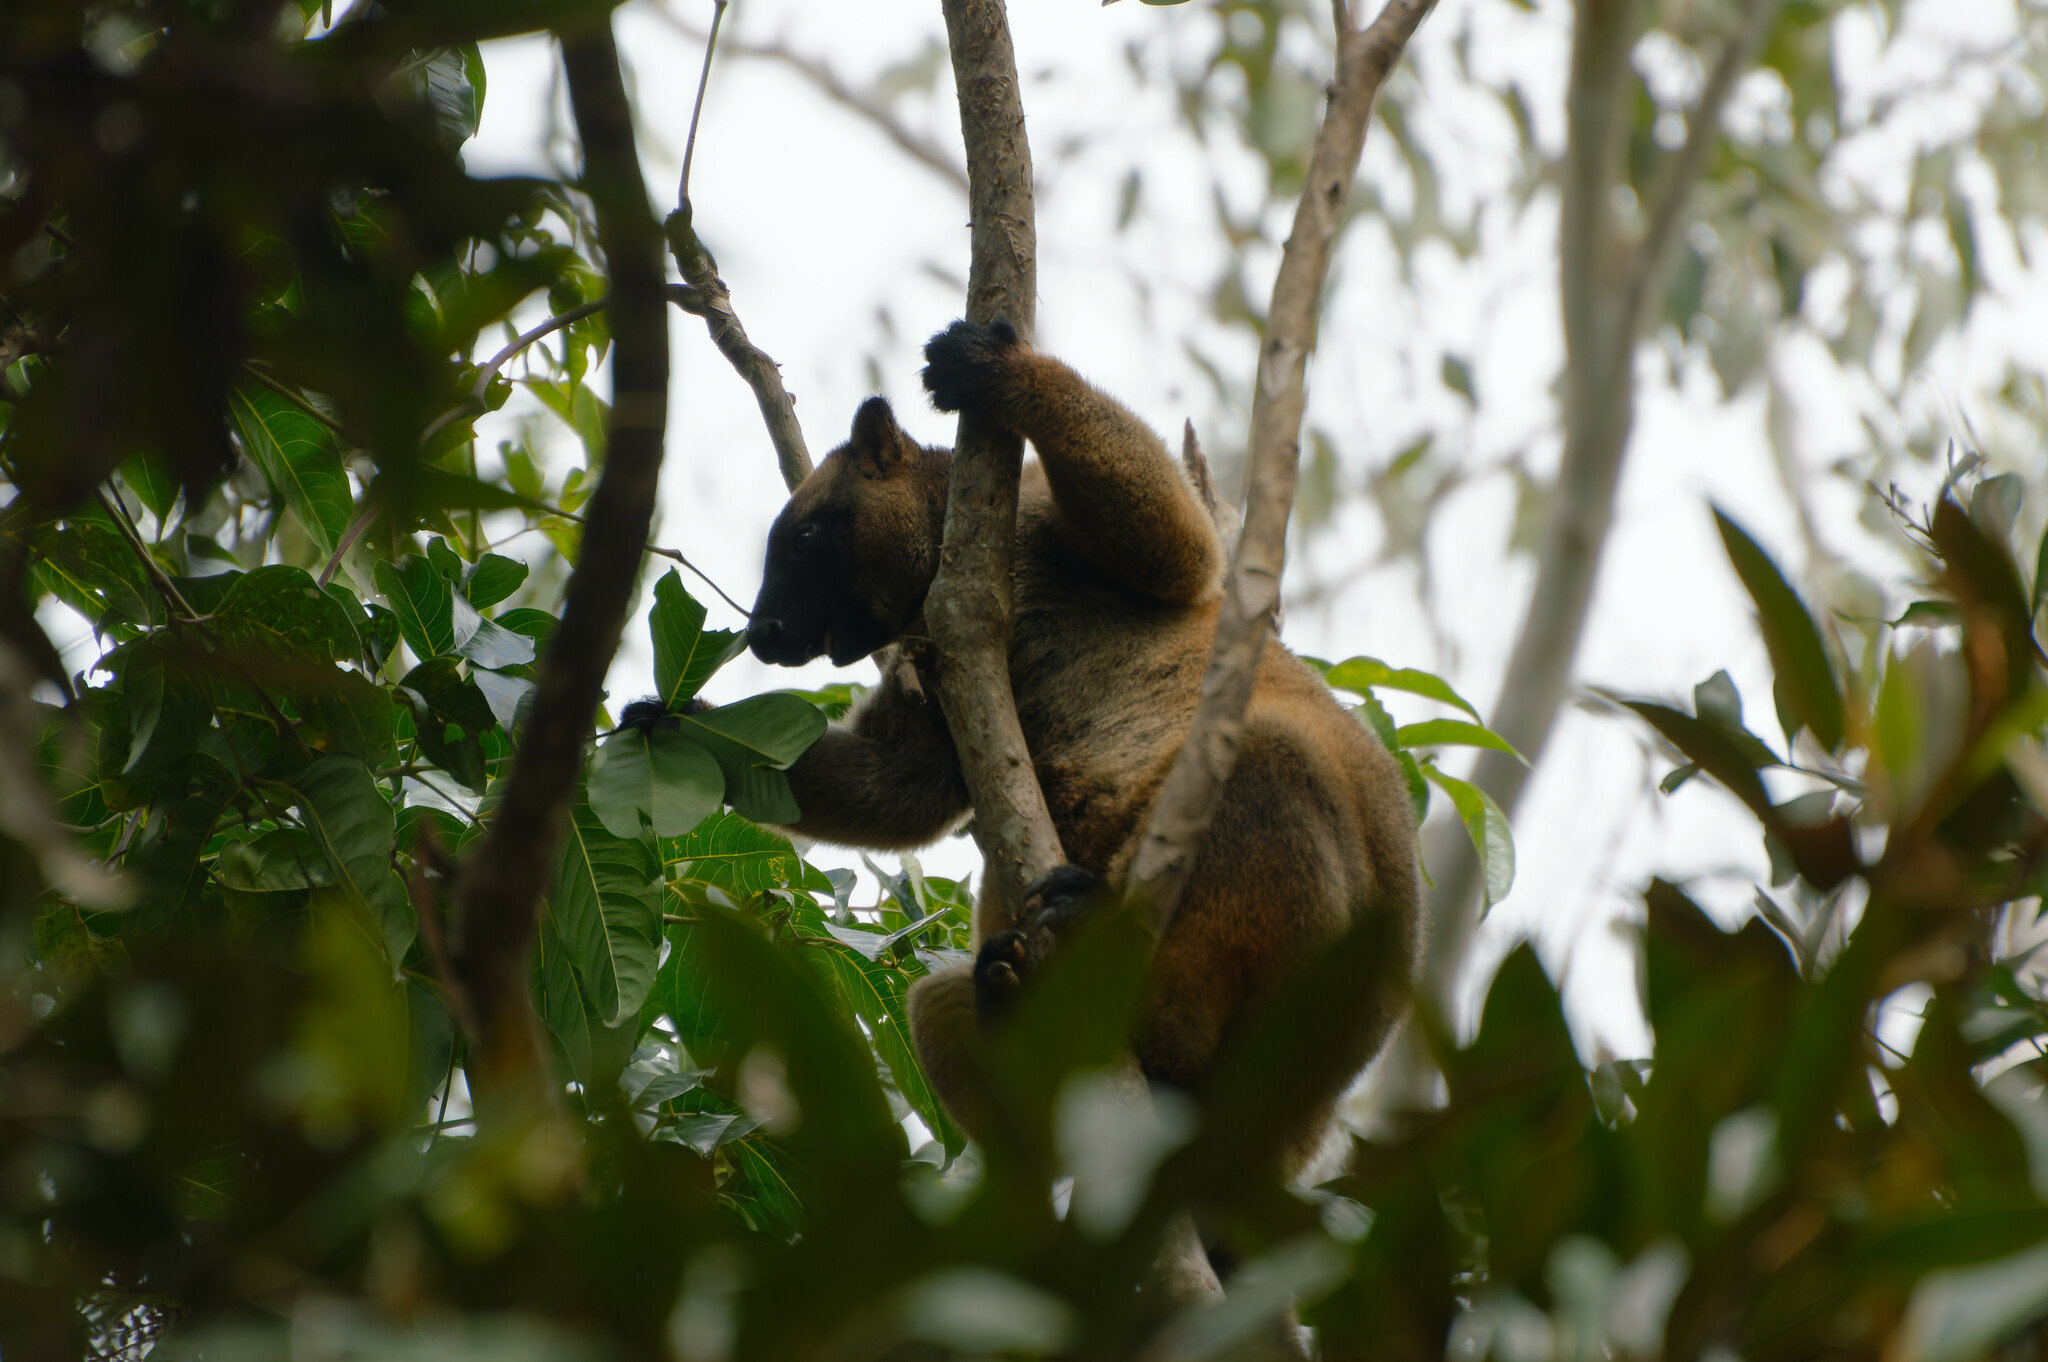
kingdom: Animalia
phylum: Chordata
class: Mammalia
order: Diprotodontia
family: Macropodidae
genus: Dendrolagus
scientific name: Dendrolagus lumholtzi
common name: Lumholtz's tree kangaroo
